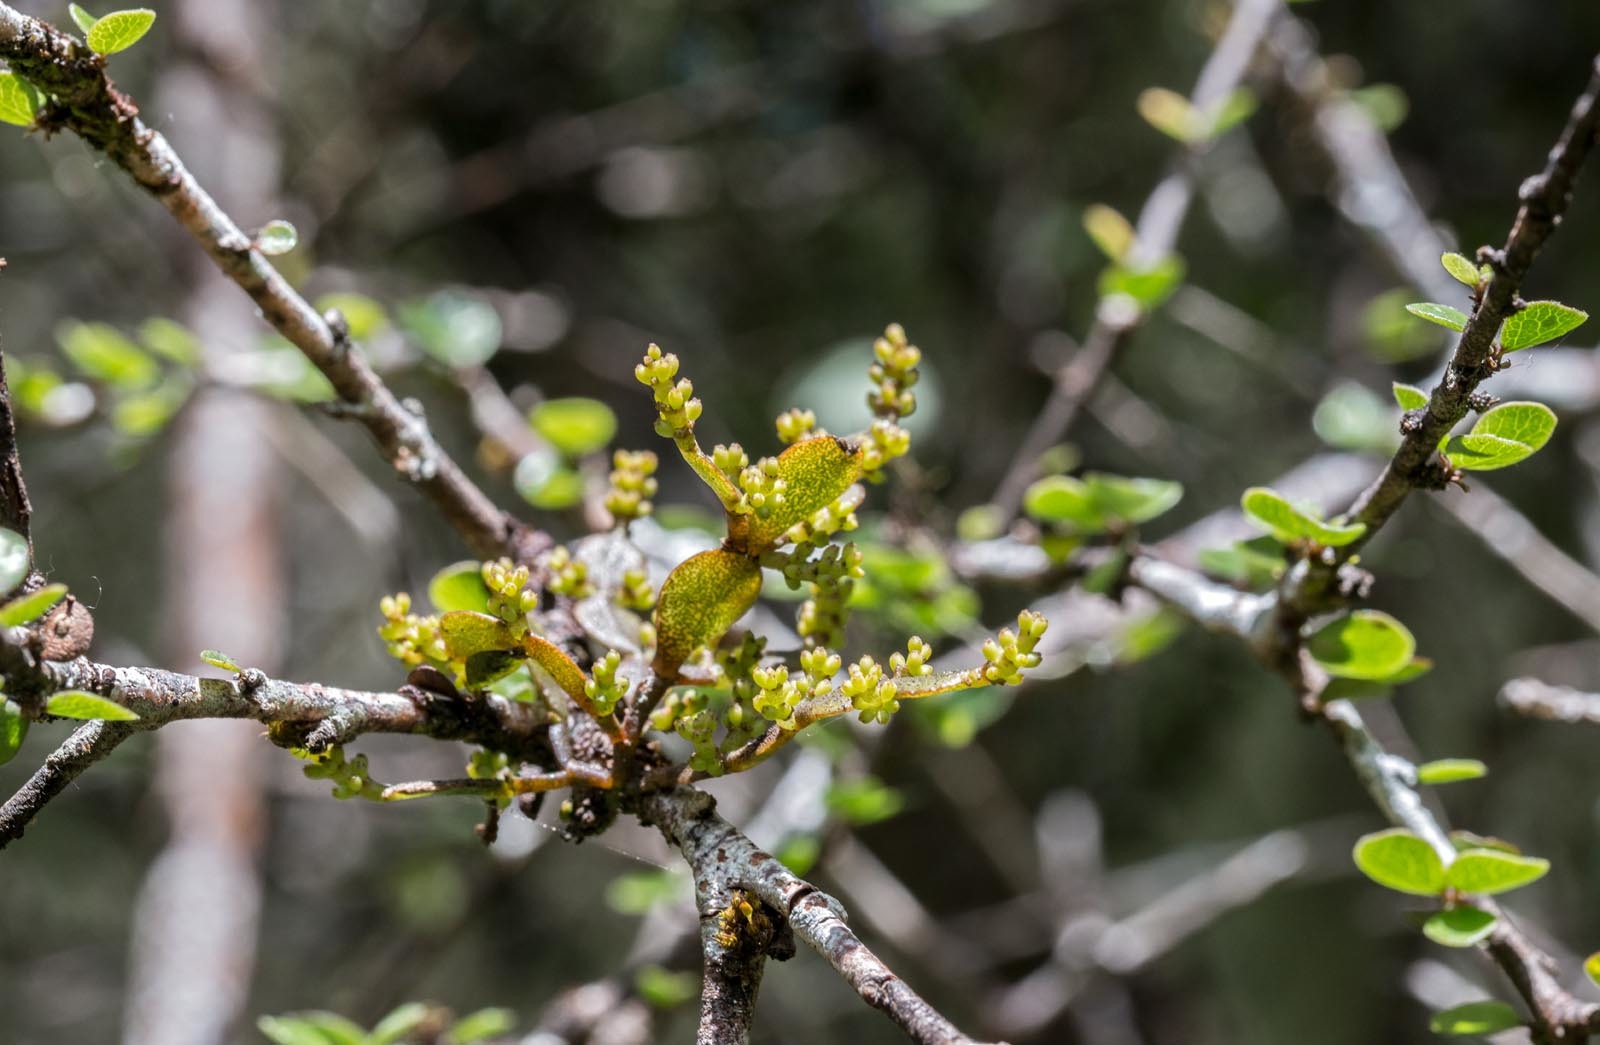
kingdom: Plantae
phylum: Tracheophyta
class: Magnoliopsida
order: Santalales
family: Viscaceae
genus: Korthalsella
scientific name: Korthalsella lindsayi
